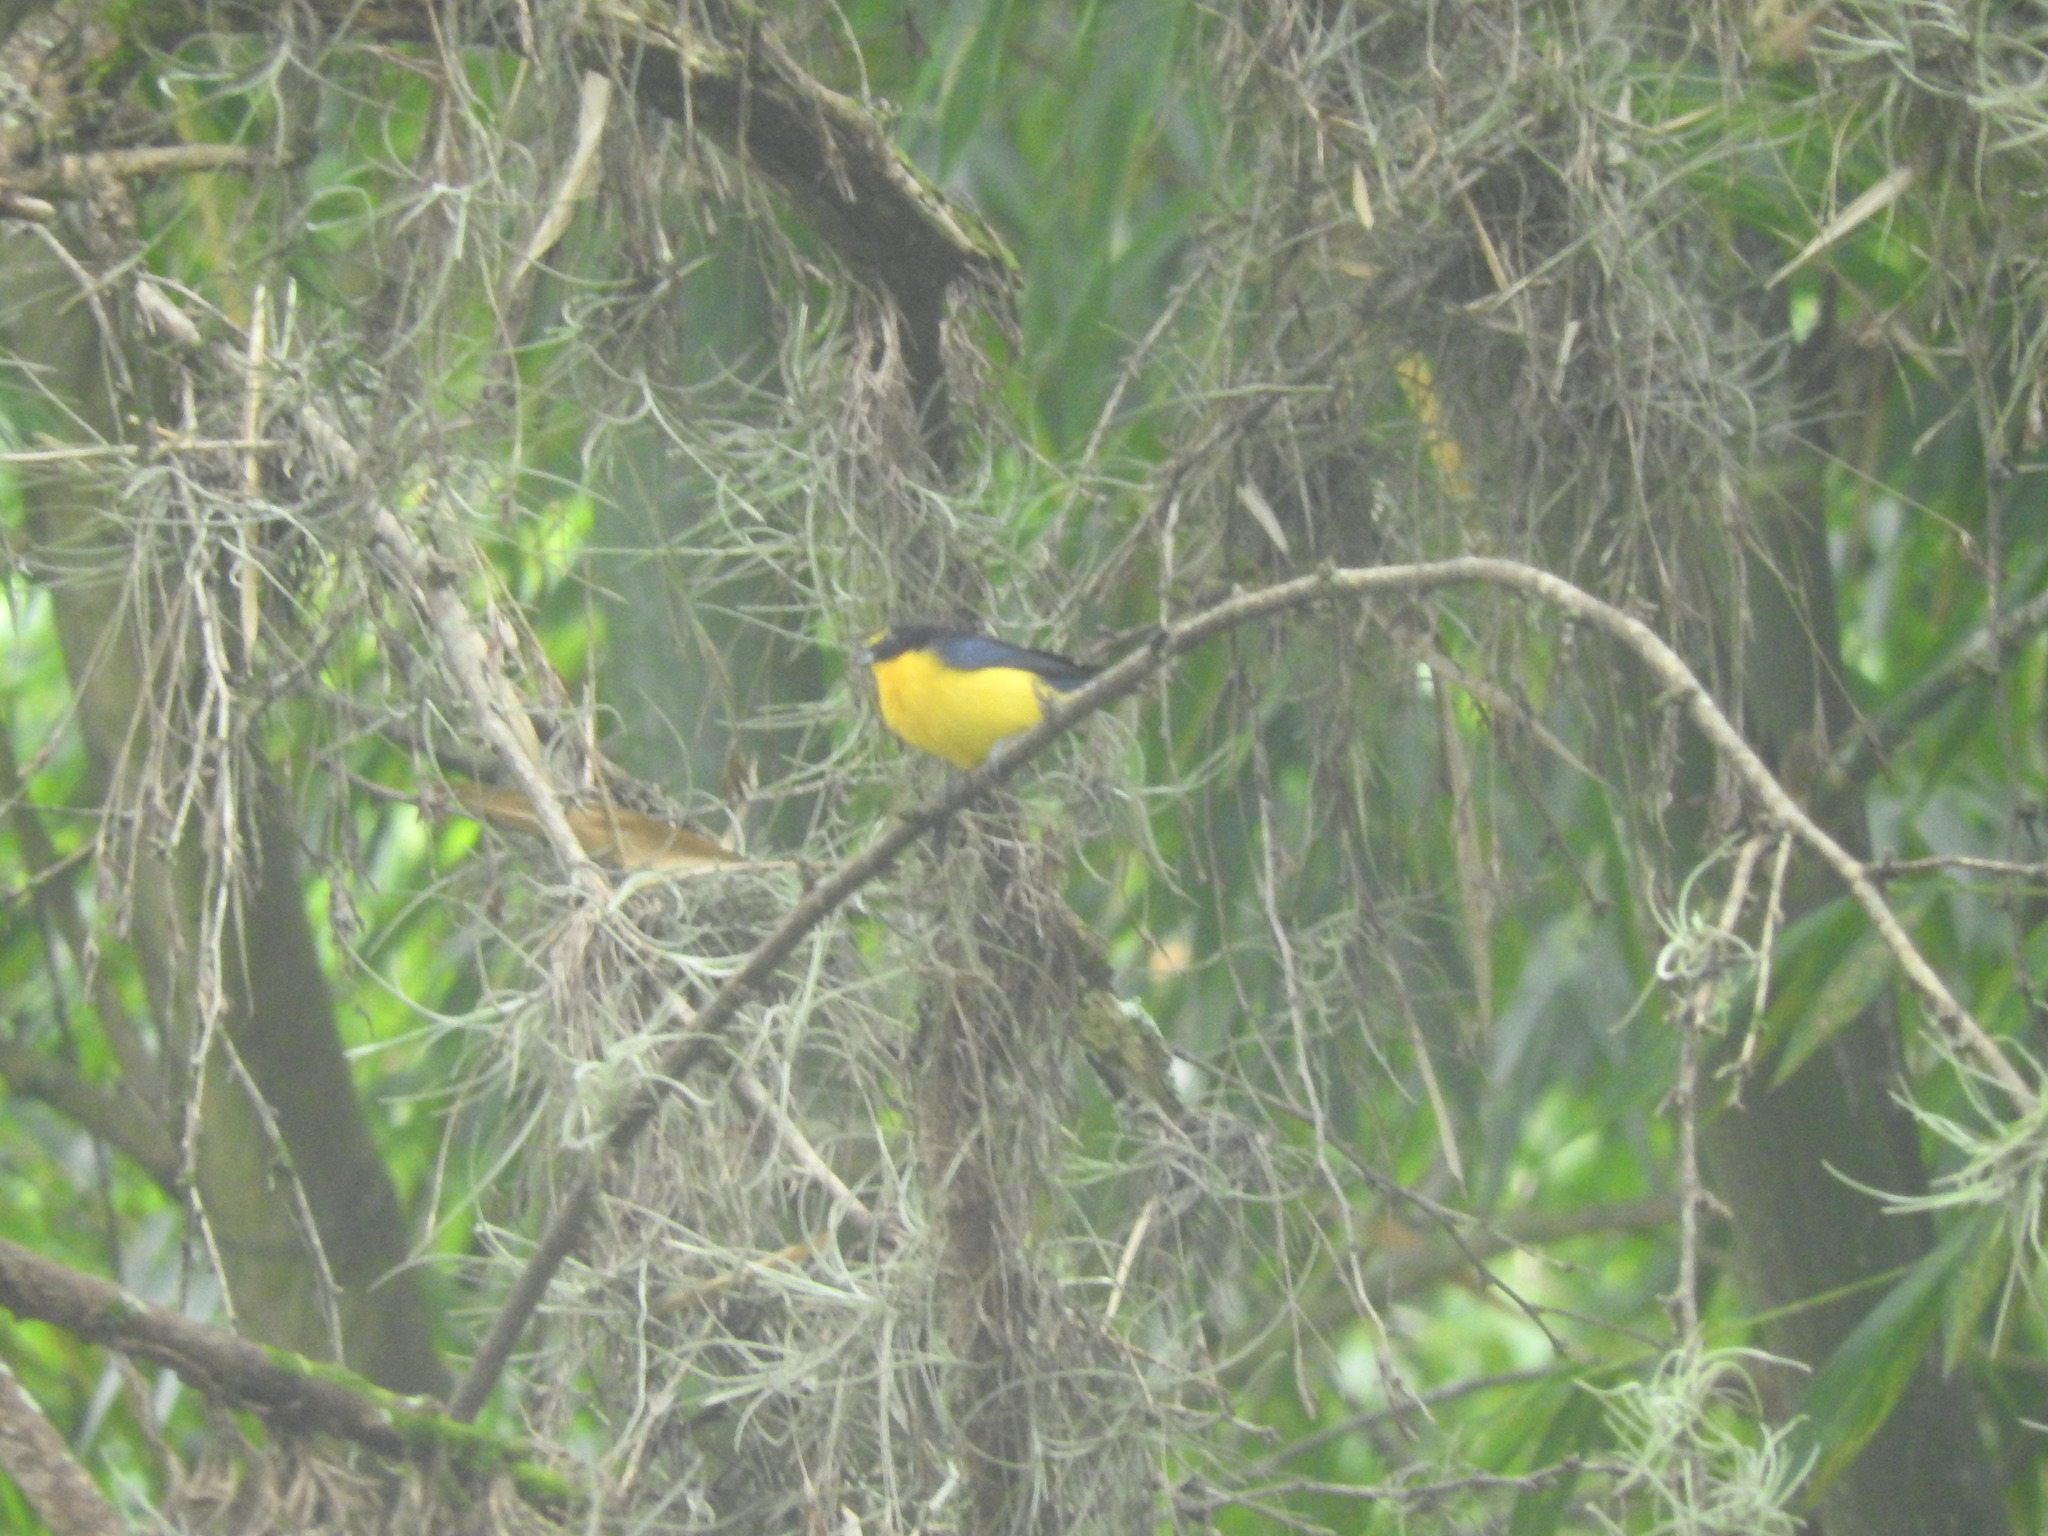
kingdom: Animalia
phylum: Chordata
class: Aves
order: Passeriformes
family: Fringillidae
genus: Euphonia
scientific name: Euphonia laniirostris
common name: Thick-billed euphonia
